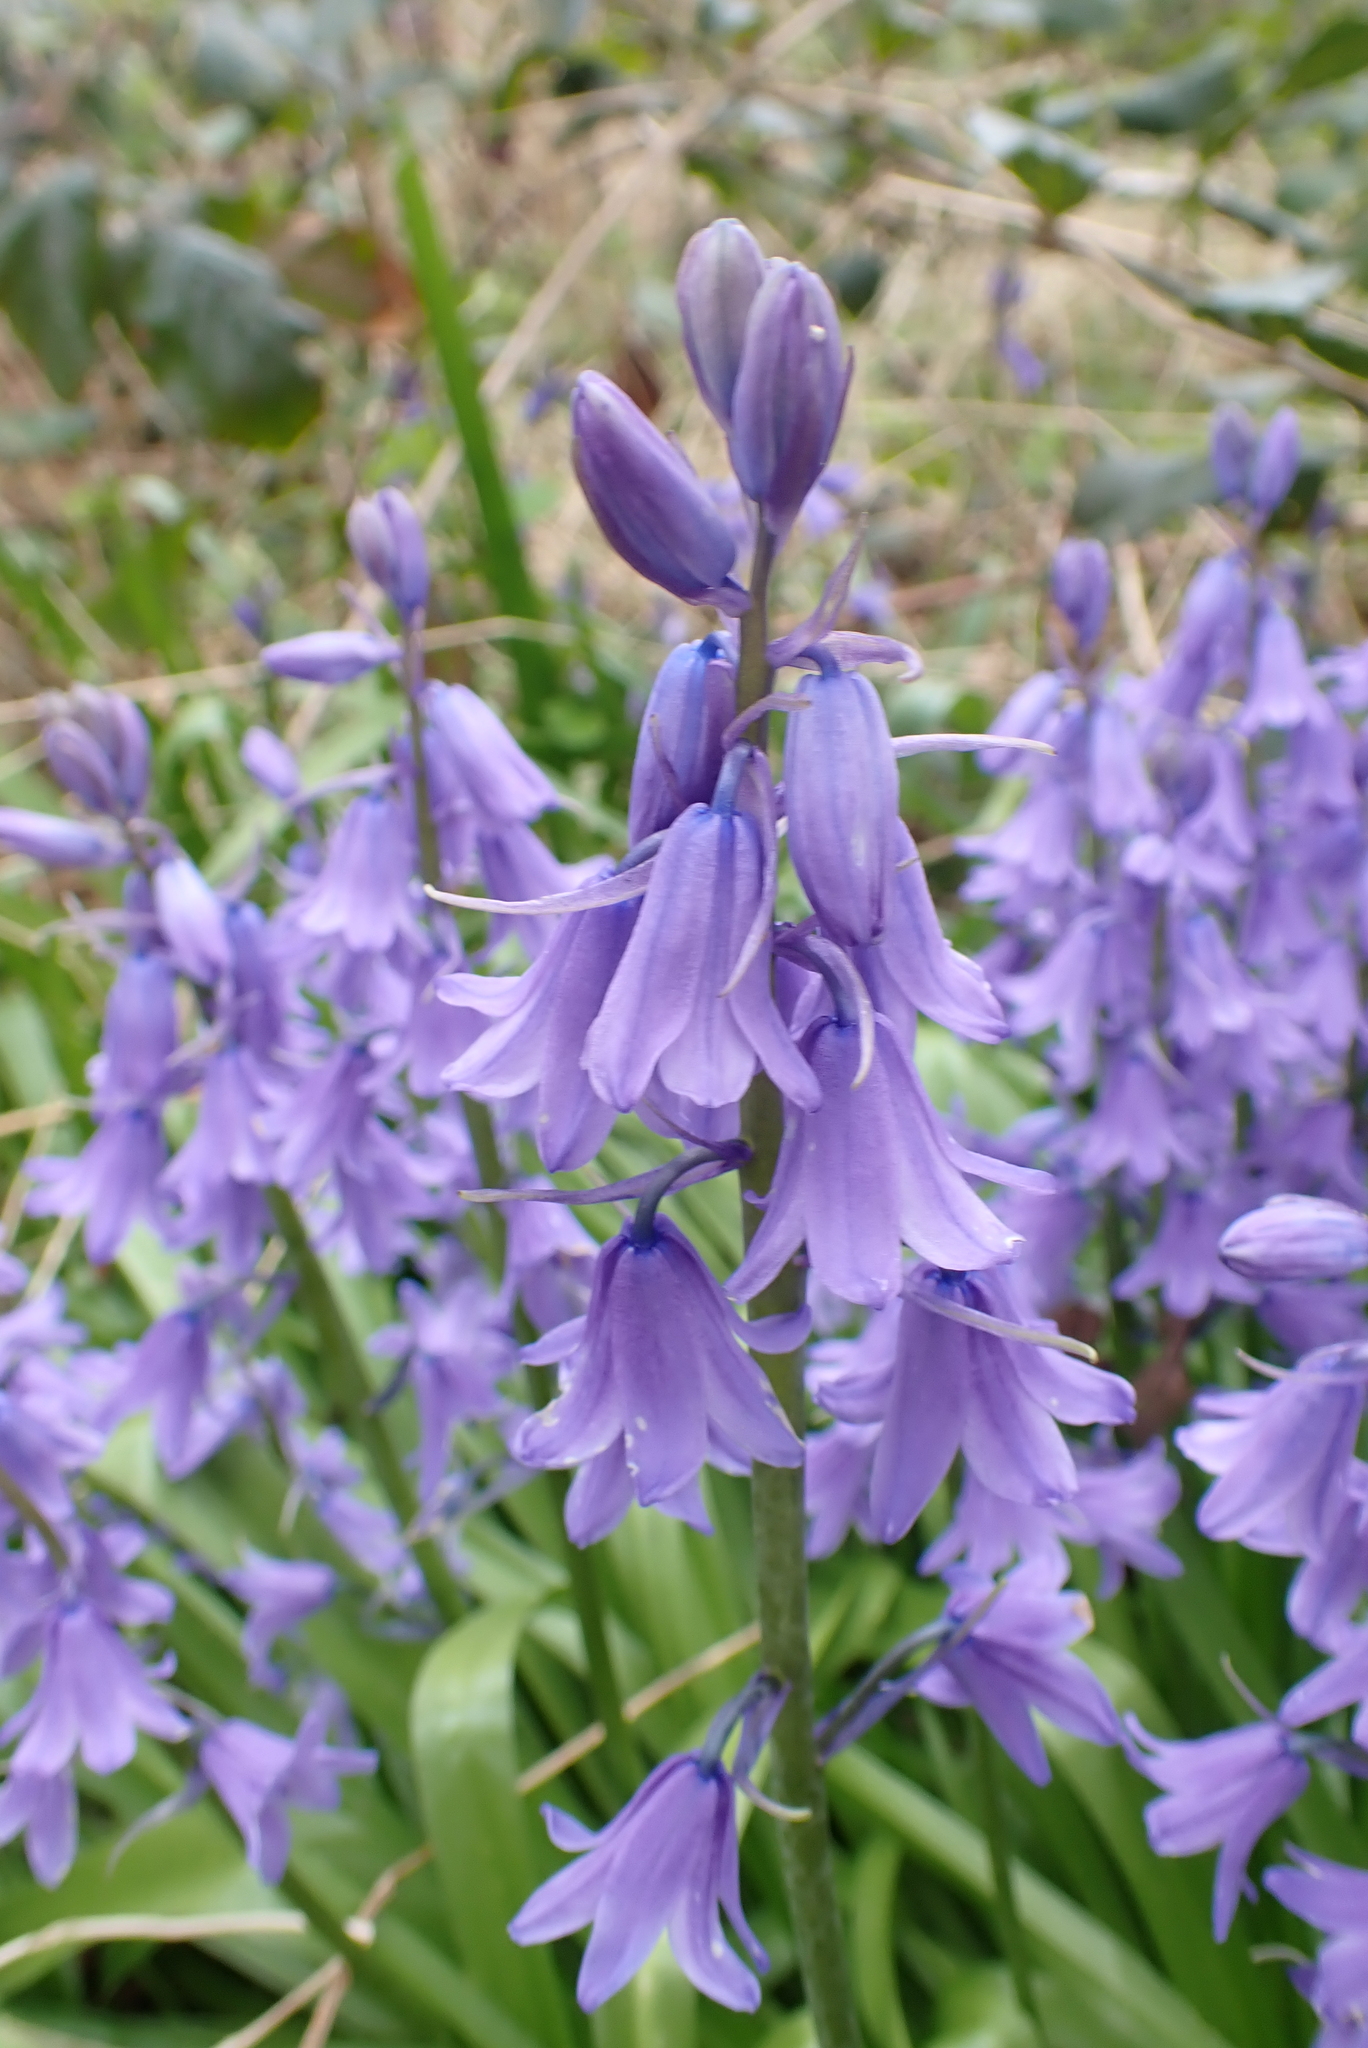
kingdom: Plantae
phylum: Tracheophyta
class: Liliopsida
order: Asparagales
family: Asparagaceae
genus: Hyacinthoides
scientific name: Hyacinthoides massartiana
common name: Hyacinthoides
